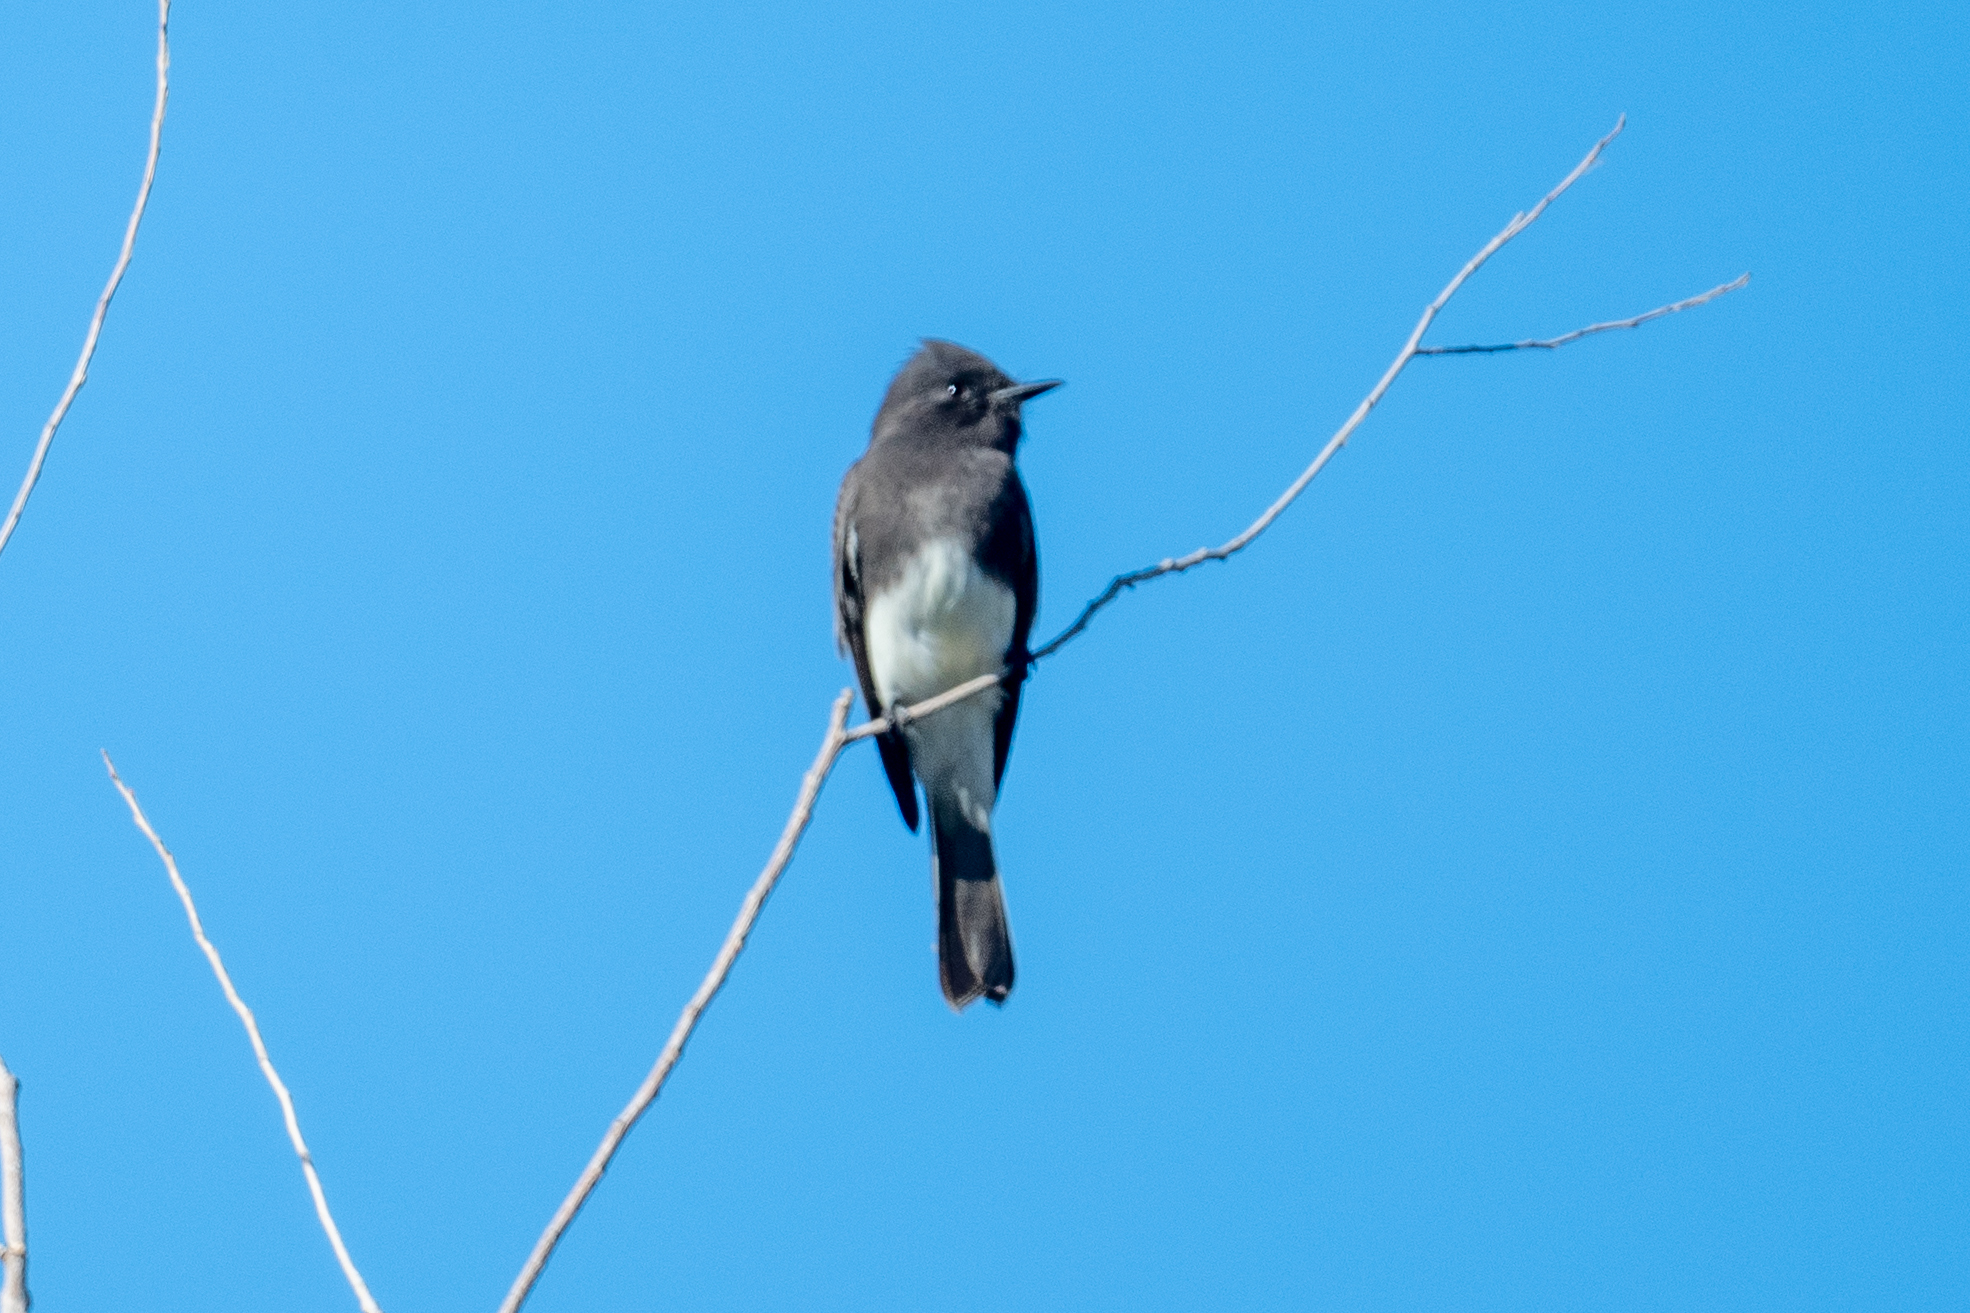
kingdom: Animalia
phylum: Chordata
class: Aves
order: Passeriformes
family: Tyrannidae
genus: Sayornis
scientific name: Sayornis nigricans
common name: Black phoebe
